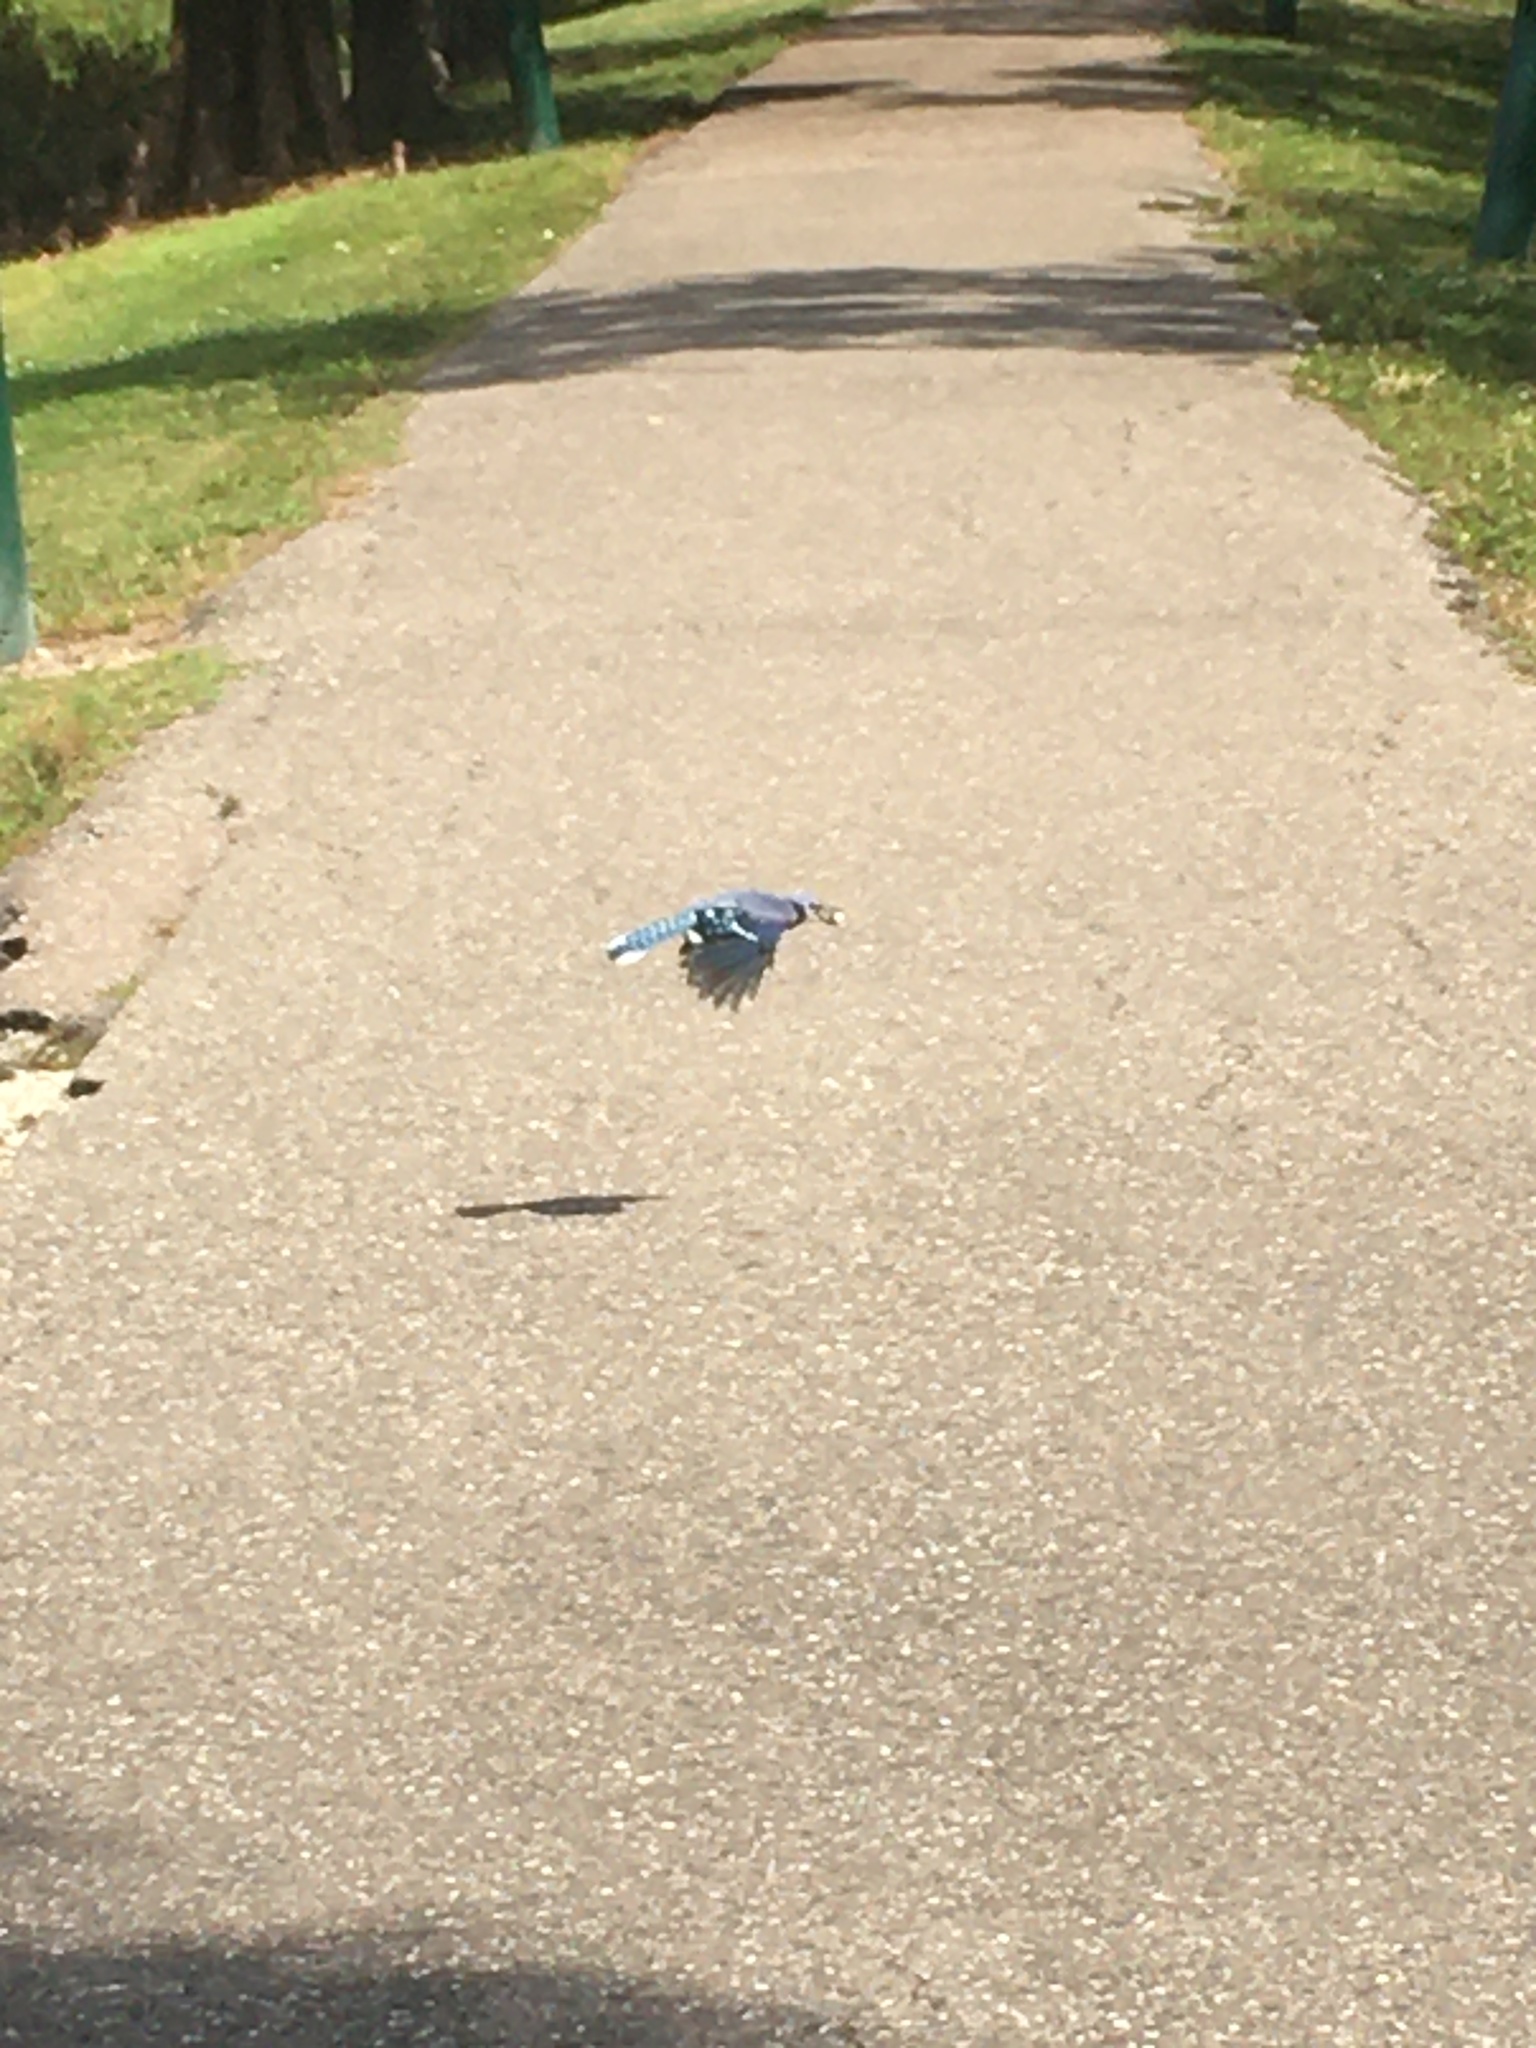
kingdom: Animalia
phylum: Chordata
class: Aves
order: Passeriformes
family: Corvidae
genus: Cyanocitta
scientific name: Cyanocitta cristata
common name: Blue jay
